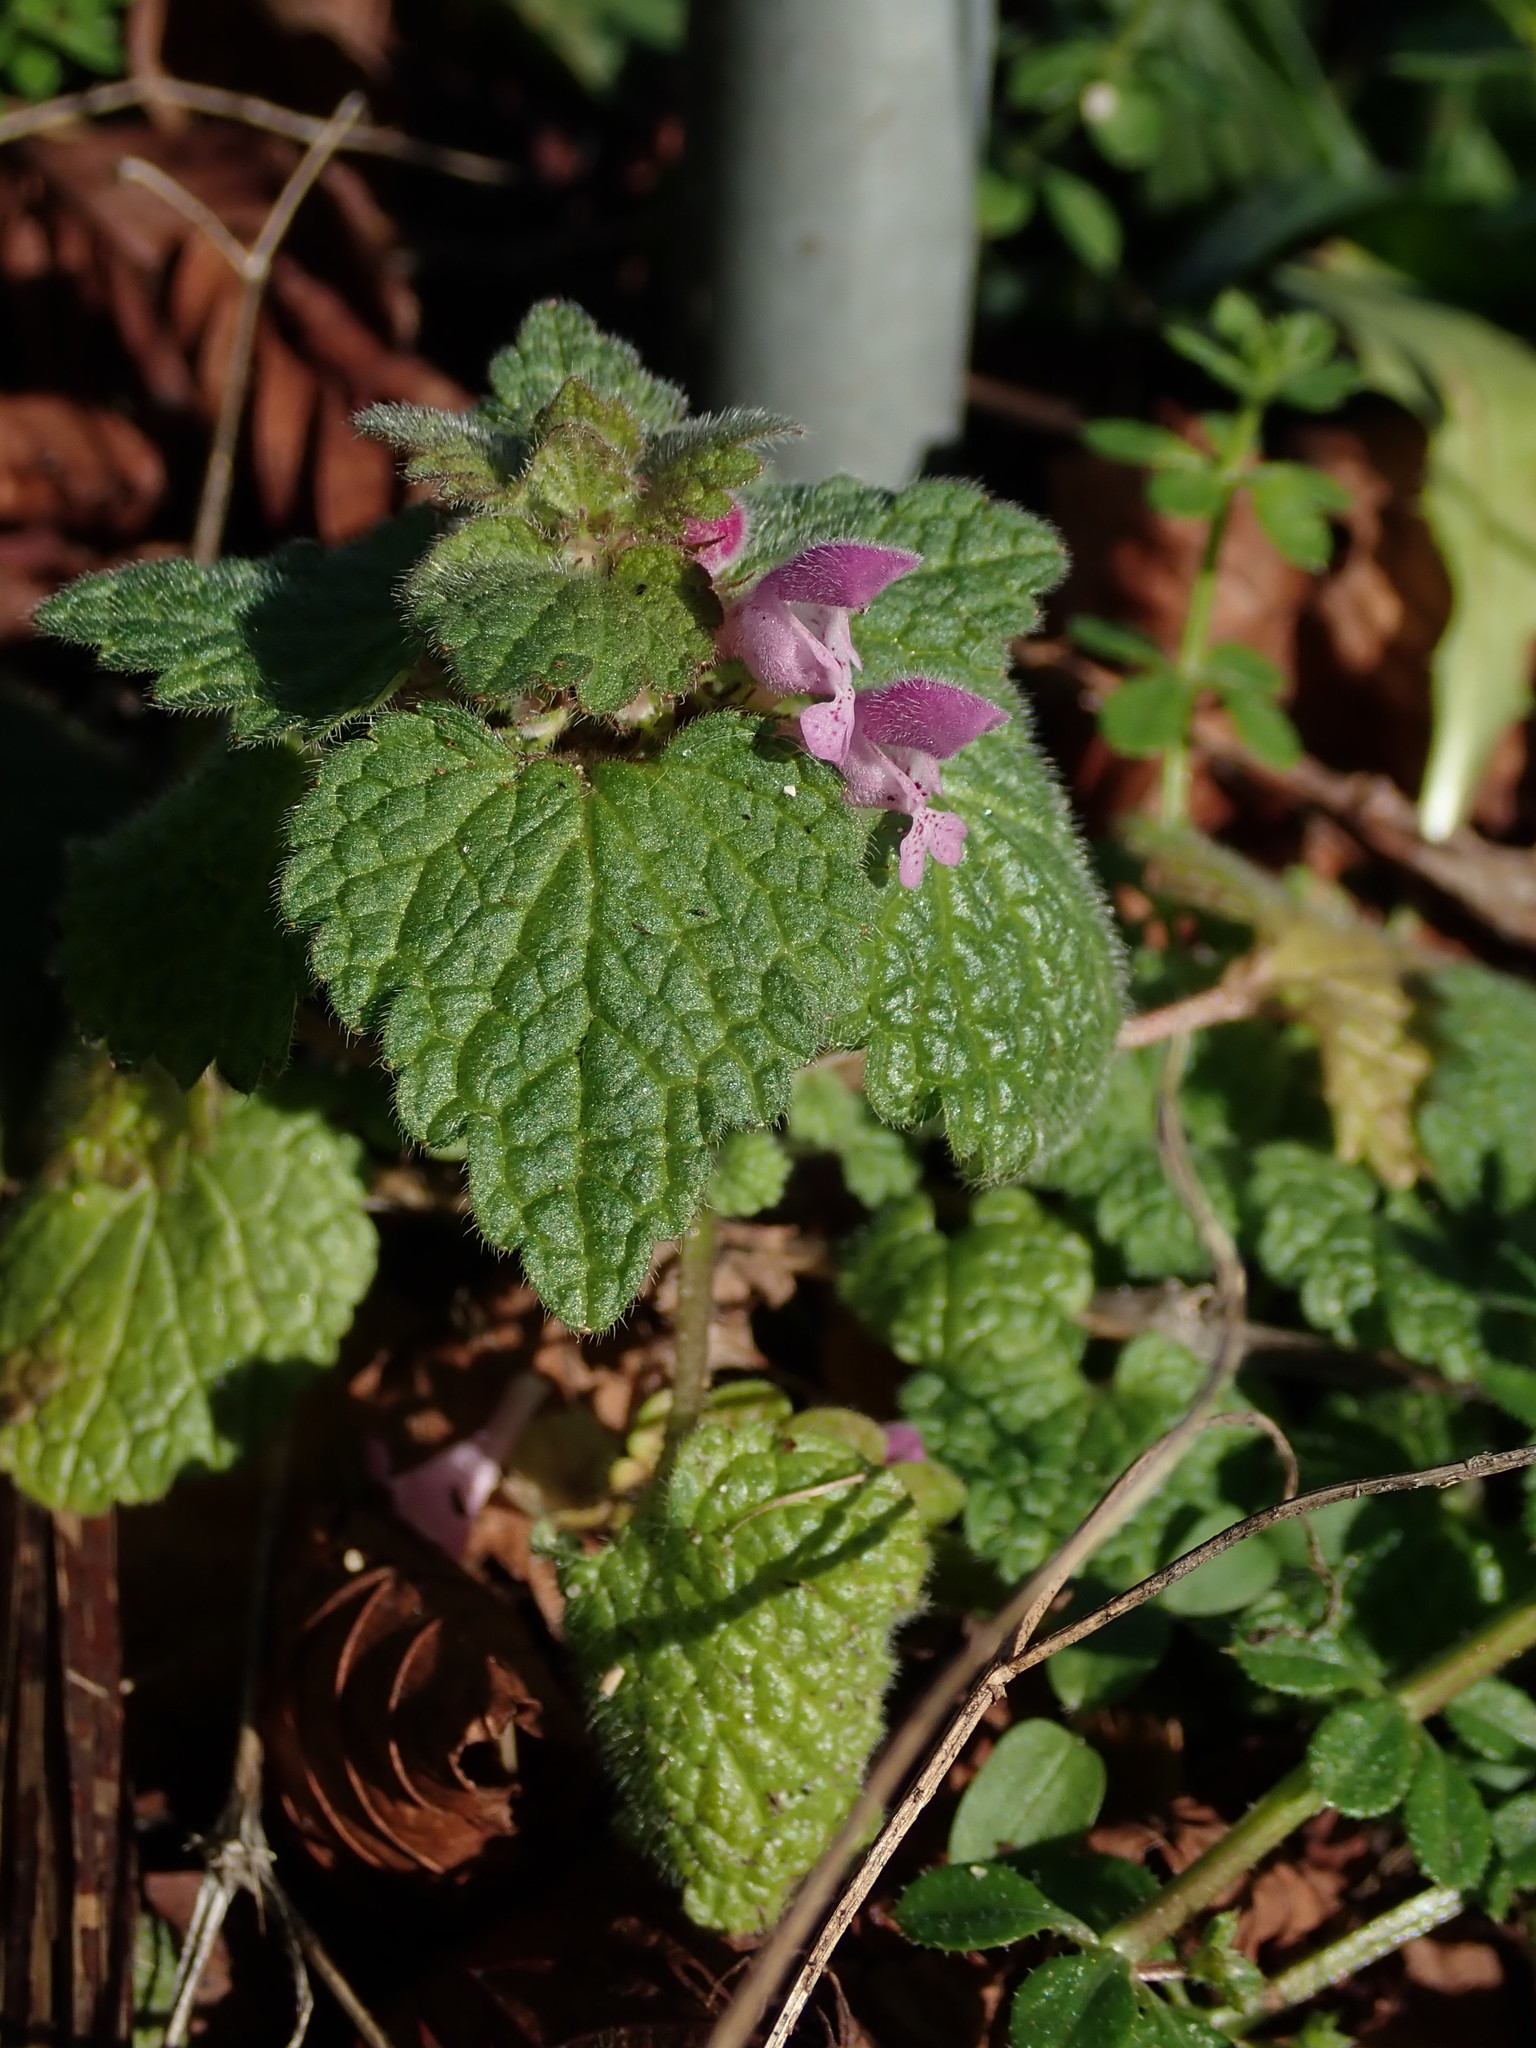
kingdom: Plantae
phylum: Tracheophyta
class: Magnoliopsida
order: Lamiales
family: Lamiaceae
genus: Lamium
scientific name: Lamium purpureum
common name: Red dead-nettle
